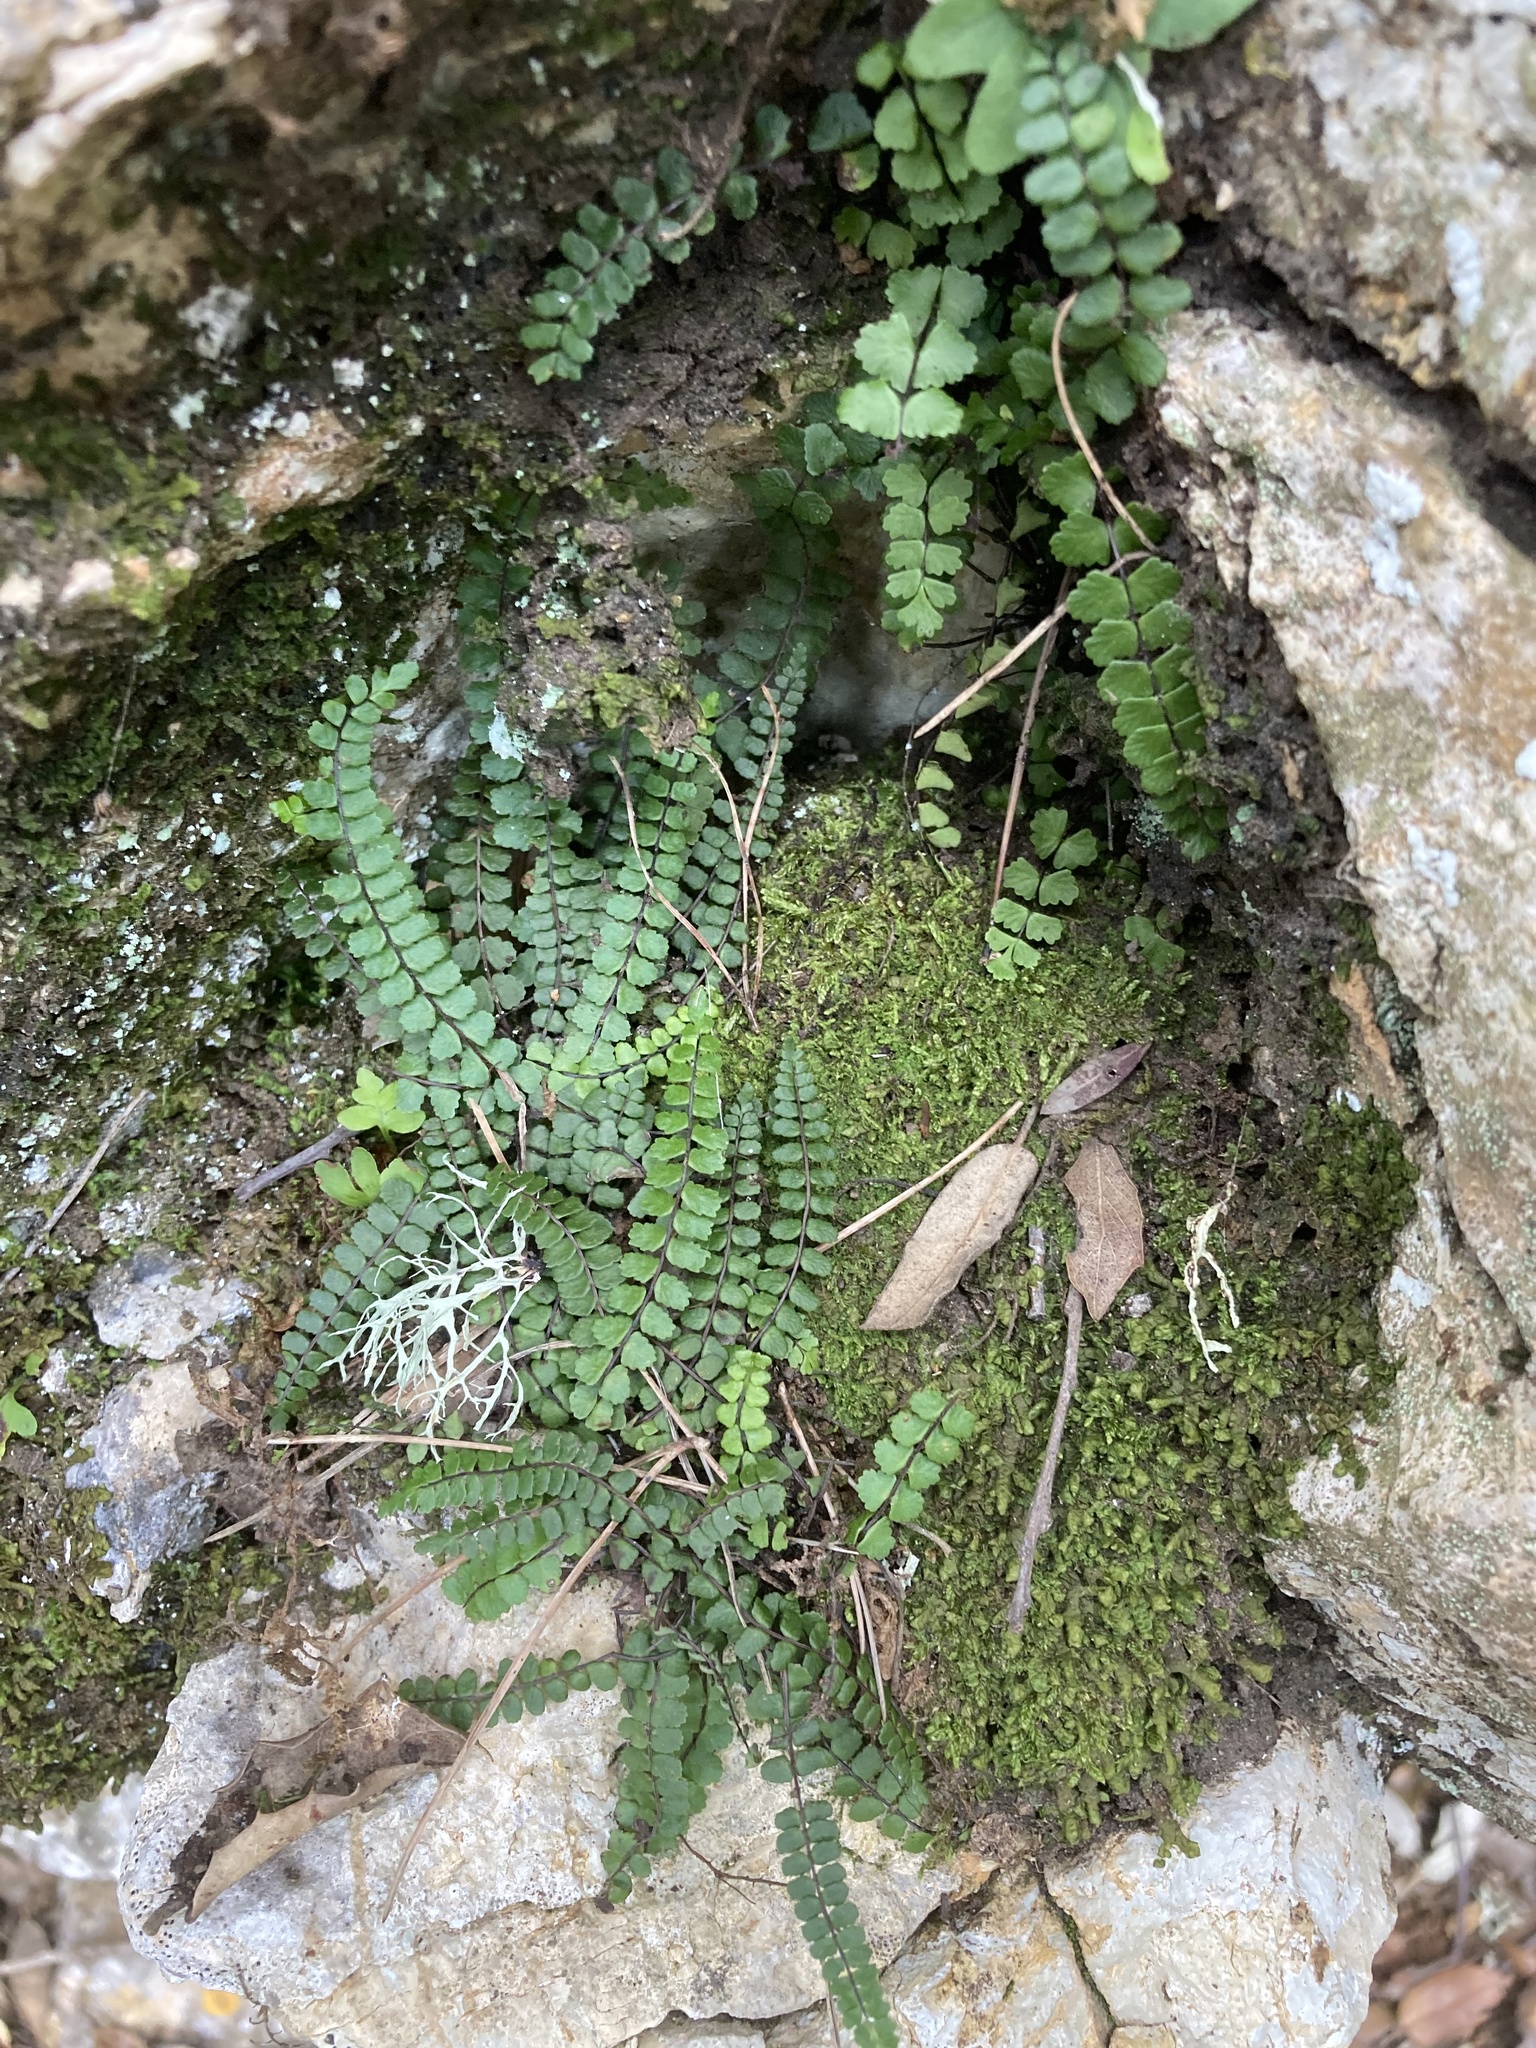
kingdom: Plantae
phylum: Tracheophyta
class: Polypodiopsida
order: Polypodiales
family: Aspleniaceae
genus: Asplenium
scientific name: Asplenium trichomanes
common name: Maidenhair spleenwort
